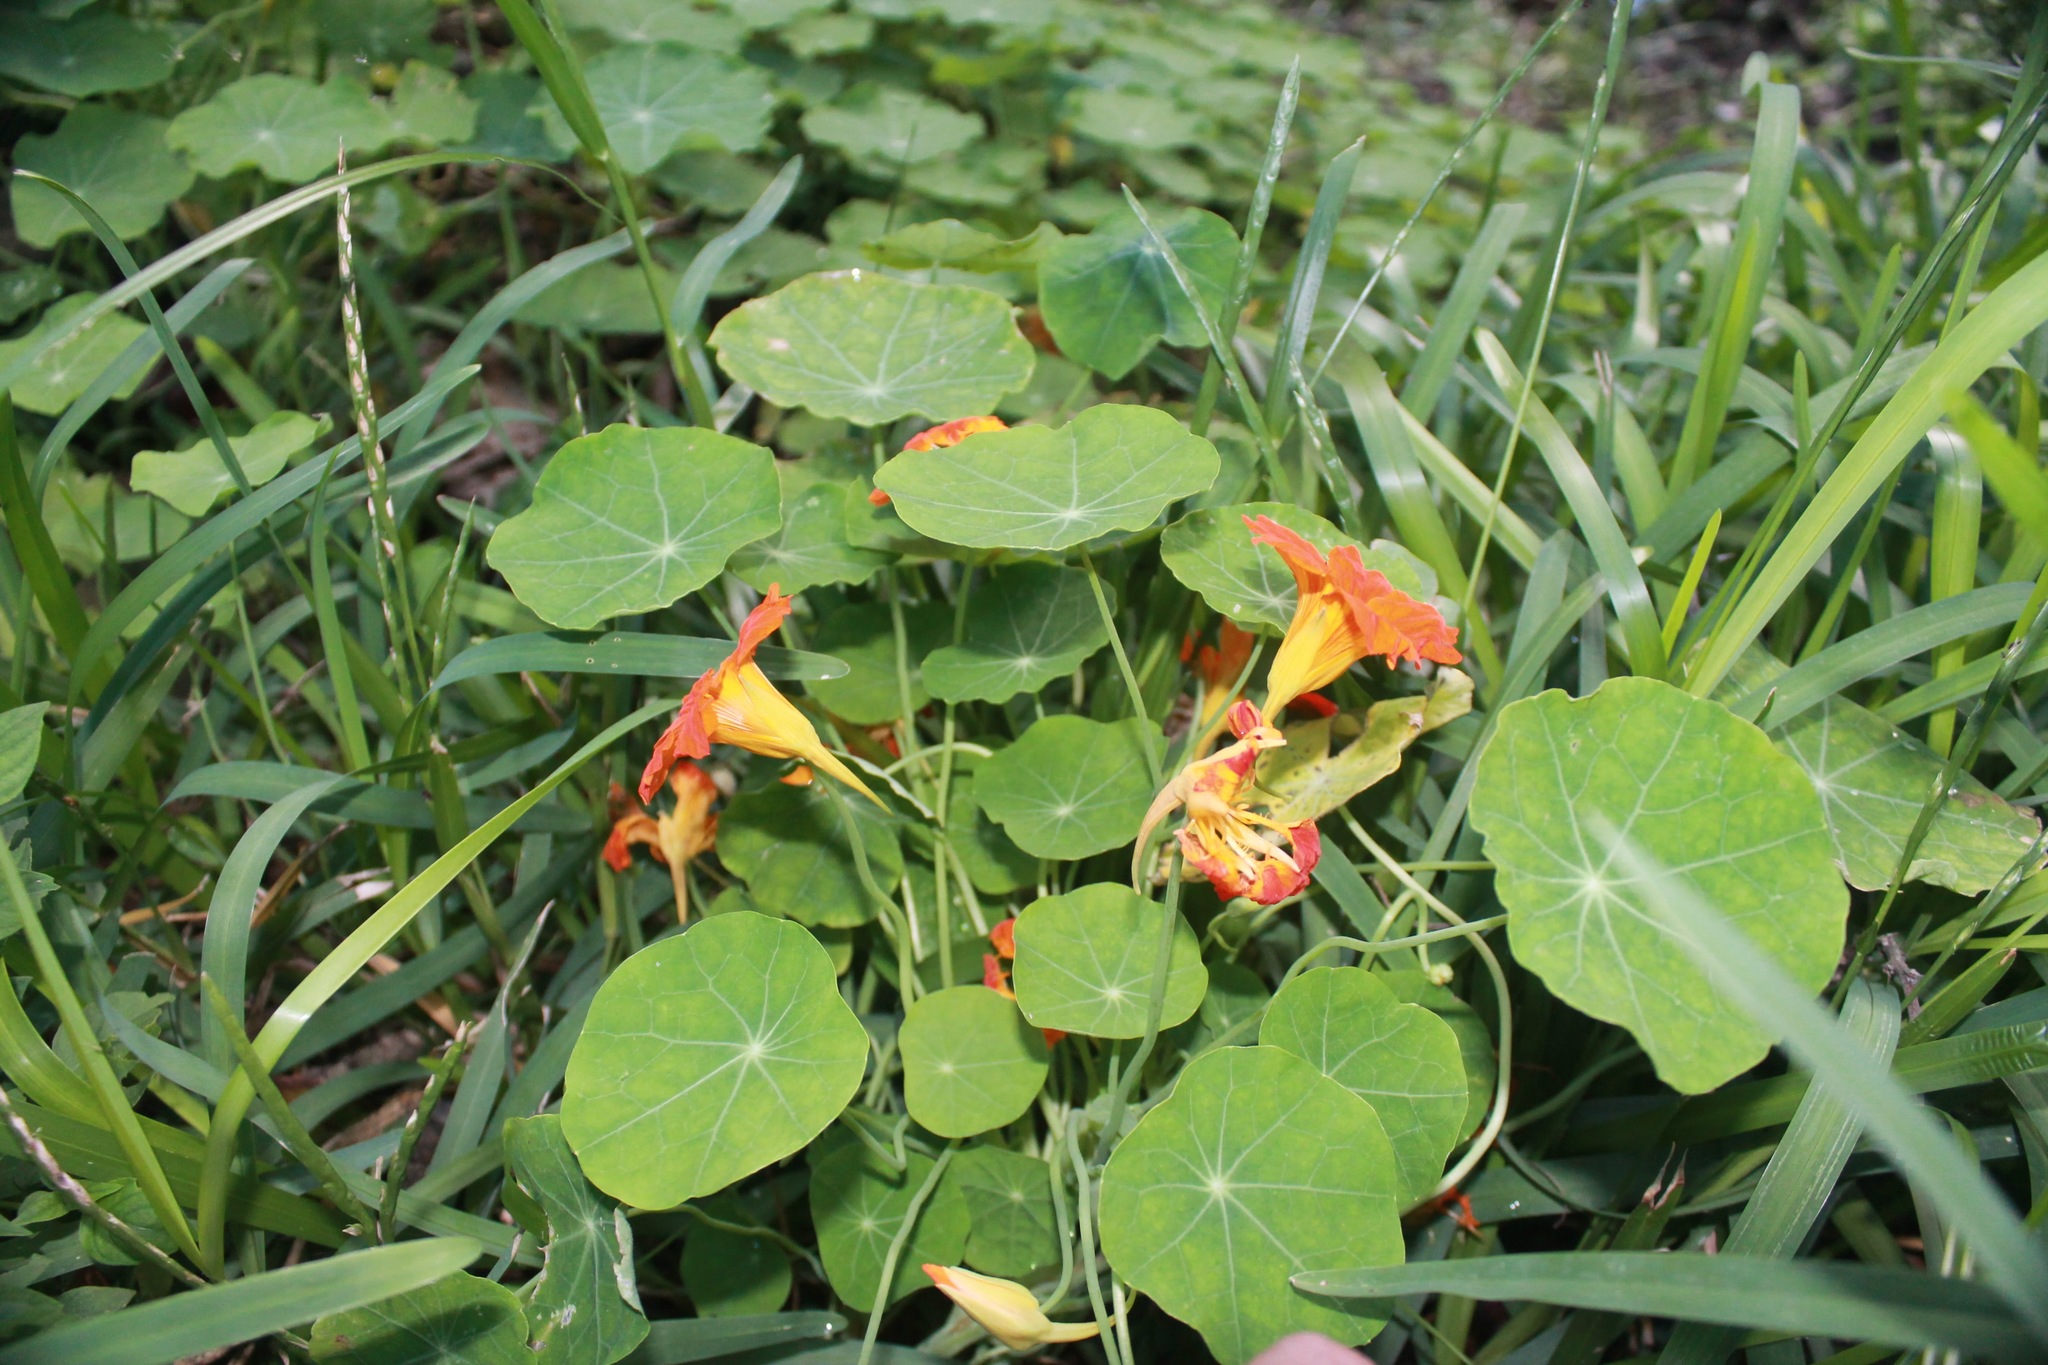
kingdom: Plantae
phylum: Tracheophyta
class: Magnoliopsida
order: Brassicales
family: Tropaeolaceae
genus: Tropaeolum
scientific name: Tropaeolum majus
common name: Nasturtium
